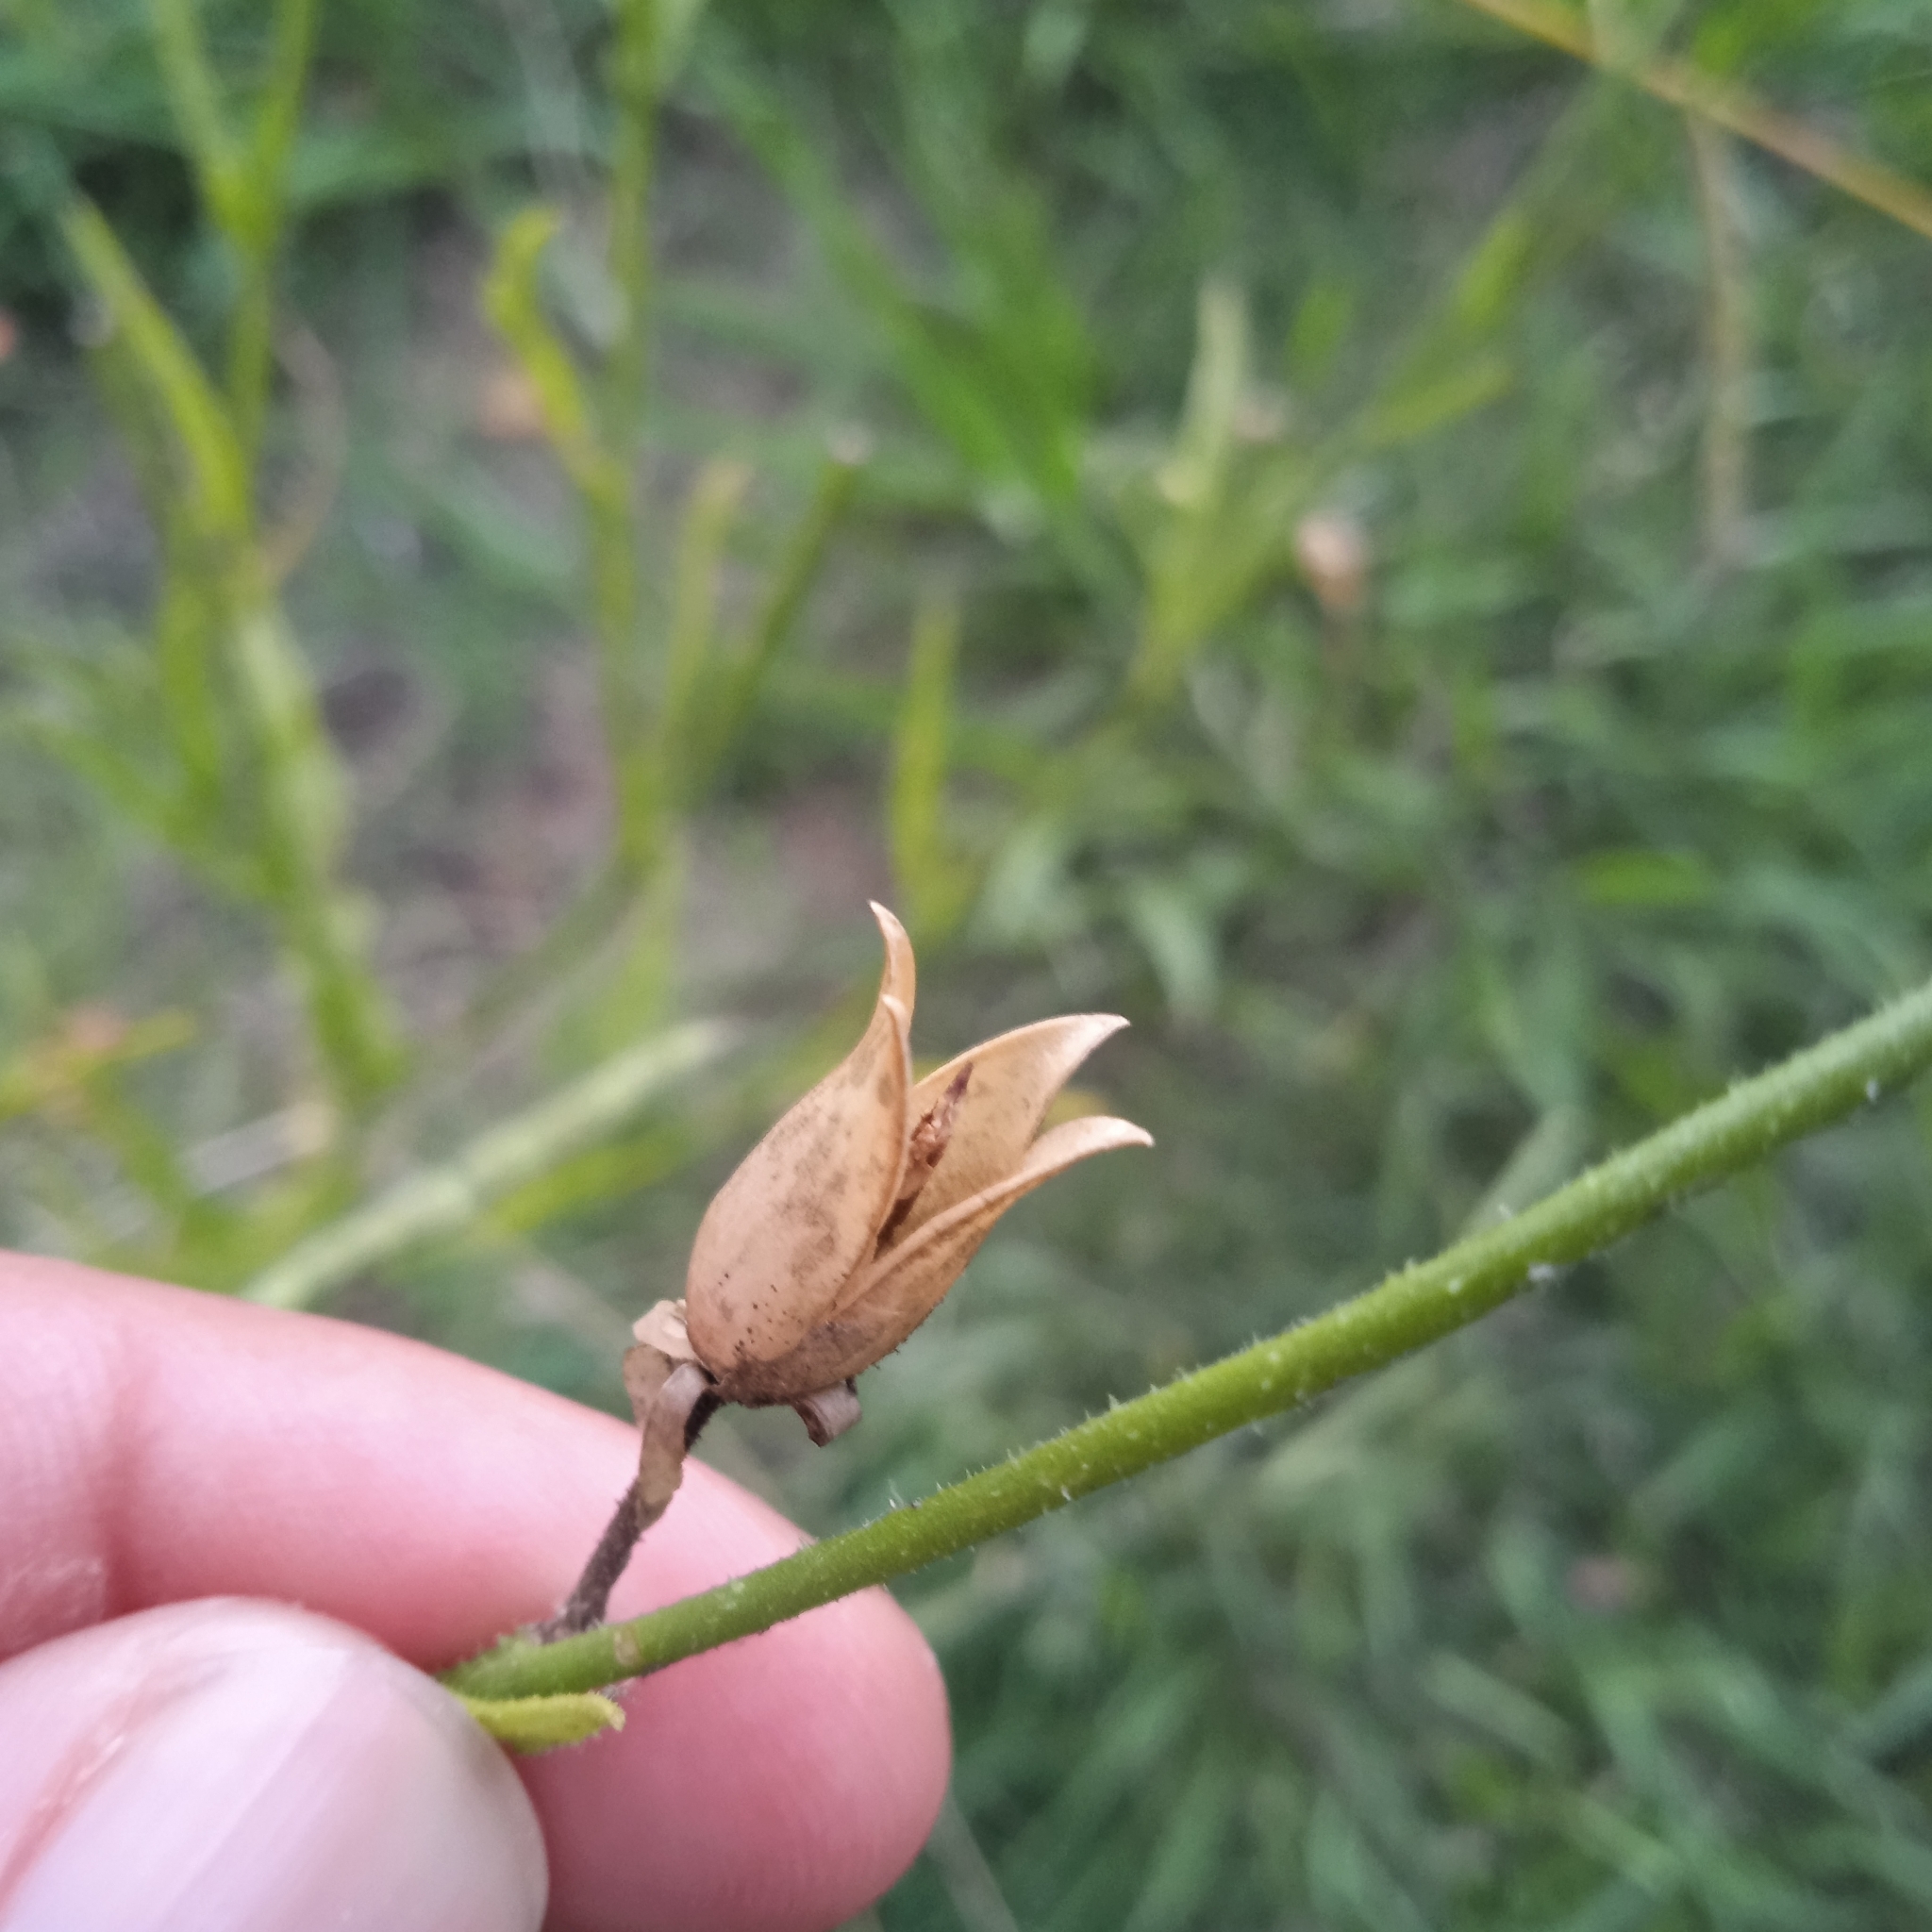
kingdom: Plantae
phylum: Tracheophyta
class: Magnoliopsida
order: Solanales
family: Solanaceae
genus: Nicotiana
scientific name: Nicotiana longiflora
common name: Long-flowered tobacco
